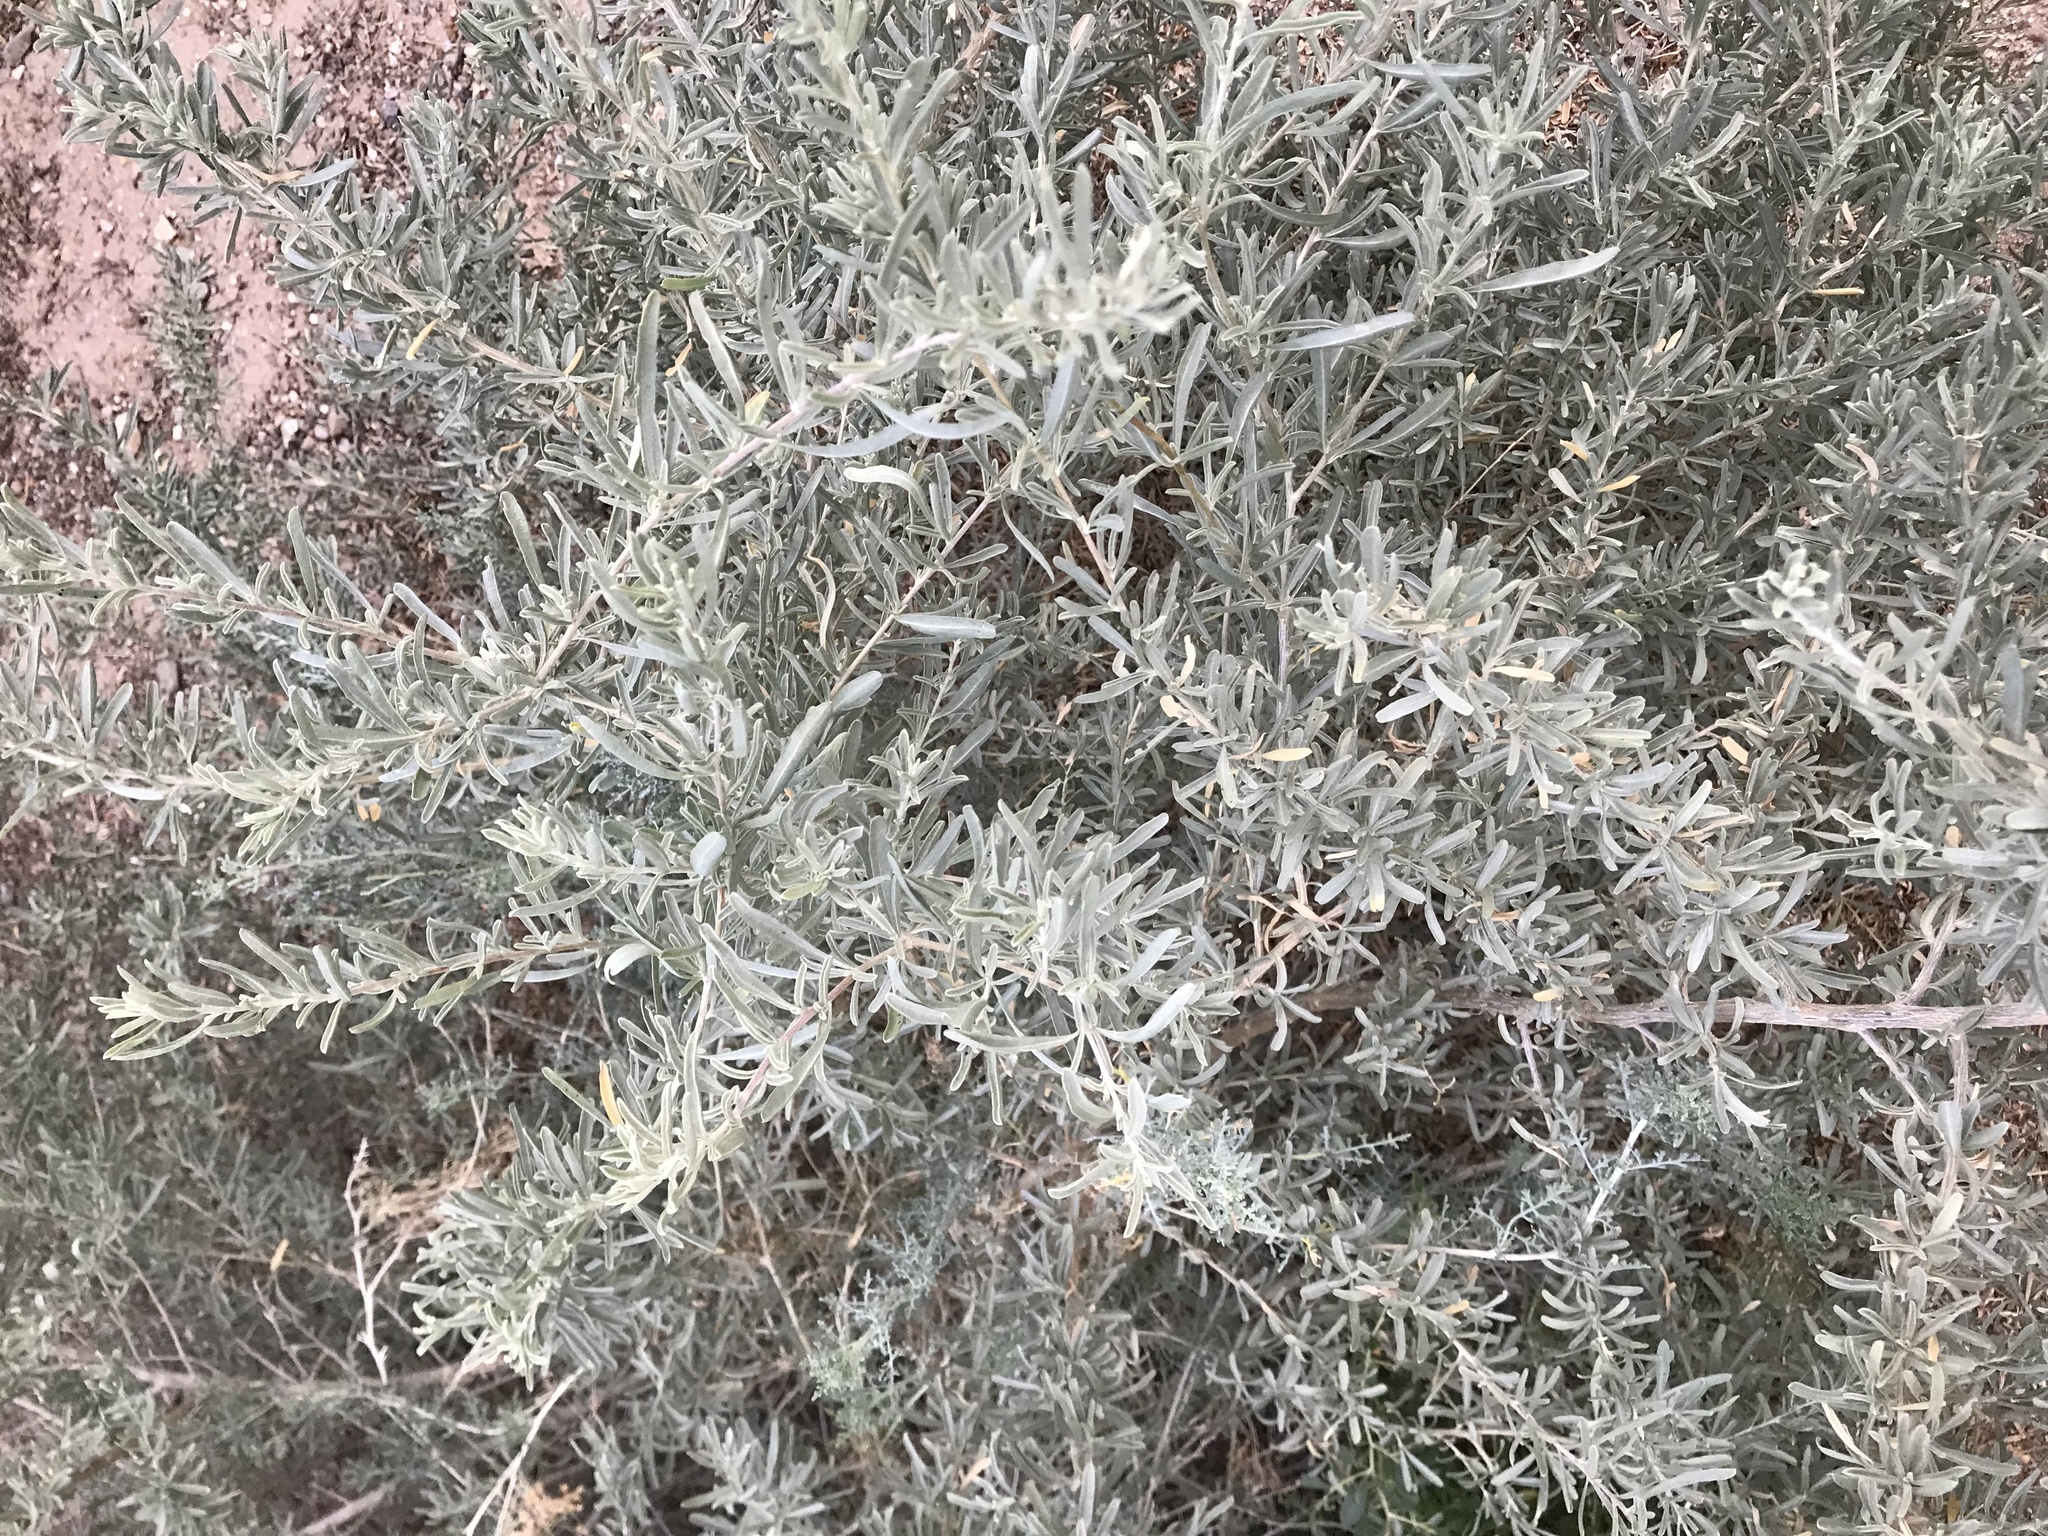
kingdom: Plantae
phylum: Tracheophyta
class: Magnoliopsida
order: Caryophyllales
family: Amaranthaceae
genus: Atriplex
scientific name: Atriplex canescens
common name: Four-wing saltbush
